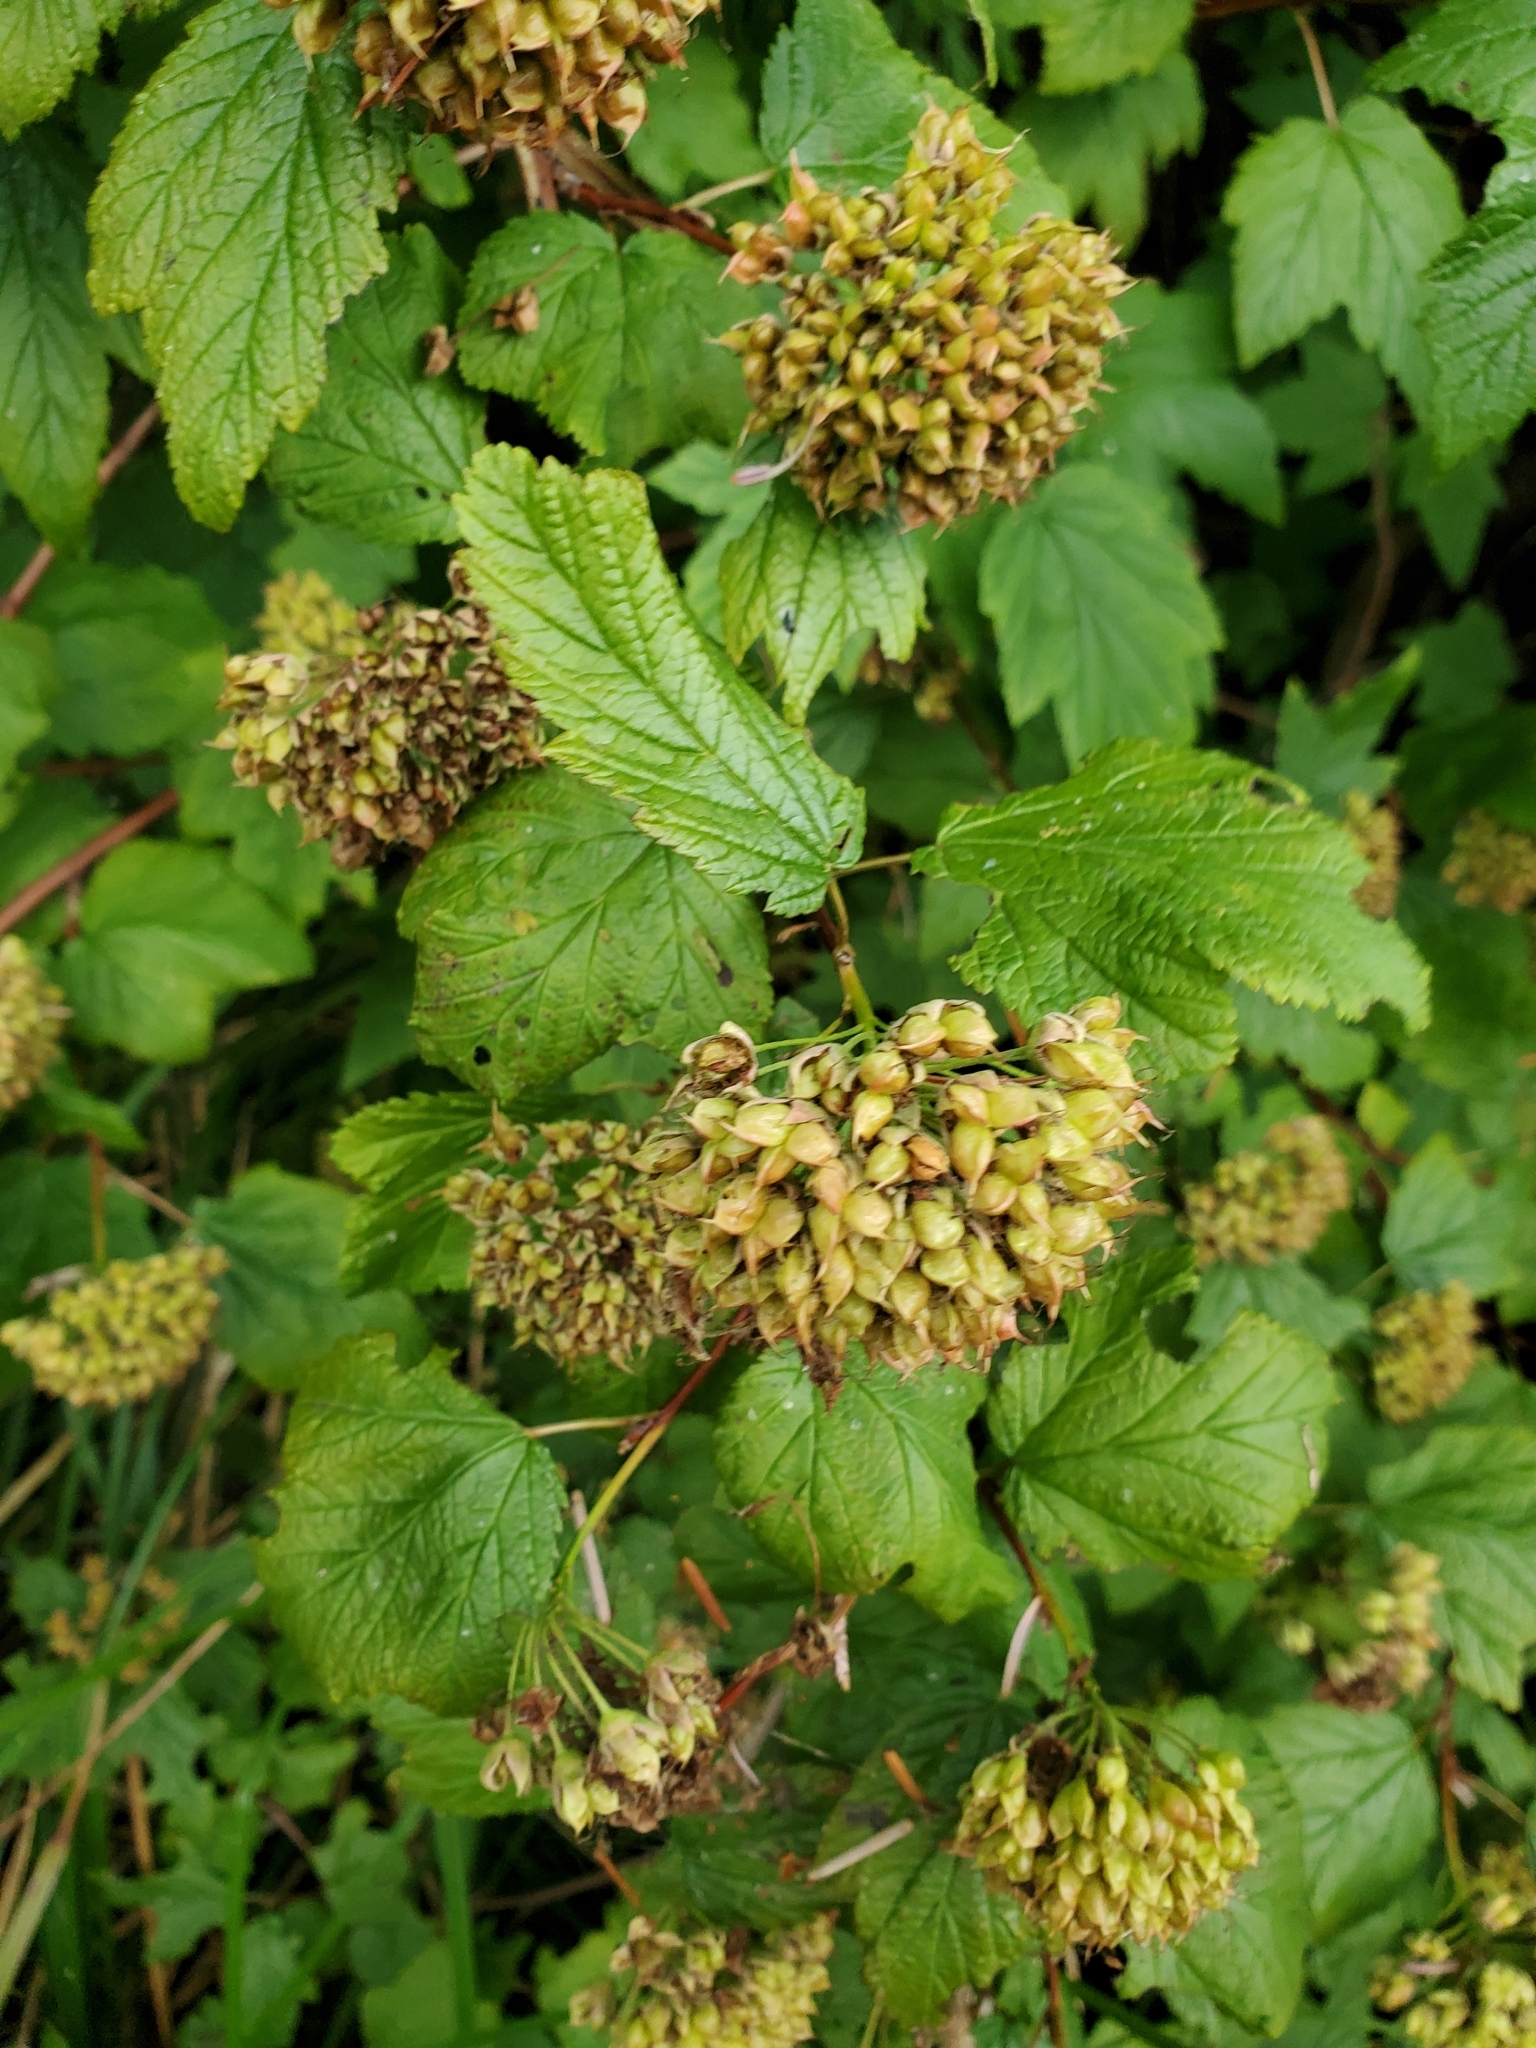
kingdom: Plantae
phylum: Tracheophyta
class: Magnoliopsida
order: Rosales
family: Rosaceae
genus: Physocarpus
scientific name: Physocarpus capitatus
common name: Pacific ninebark
